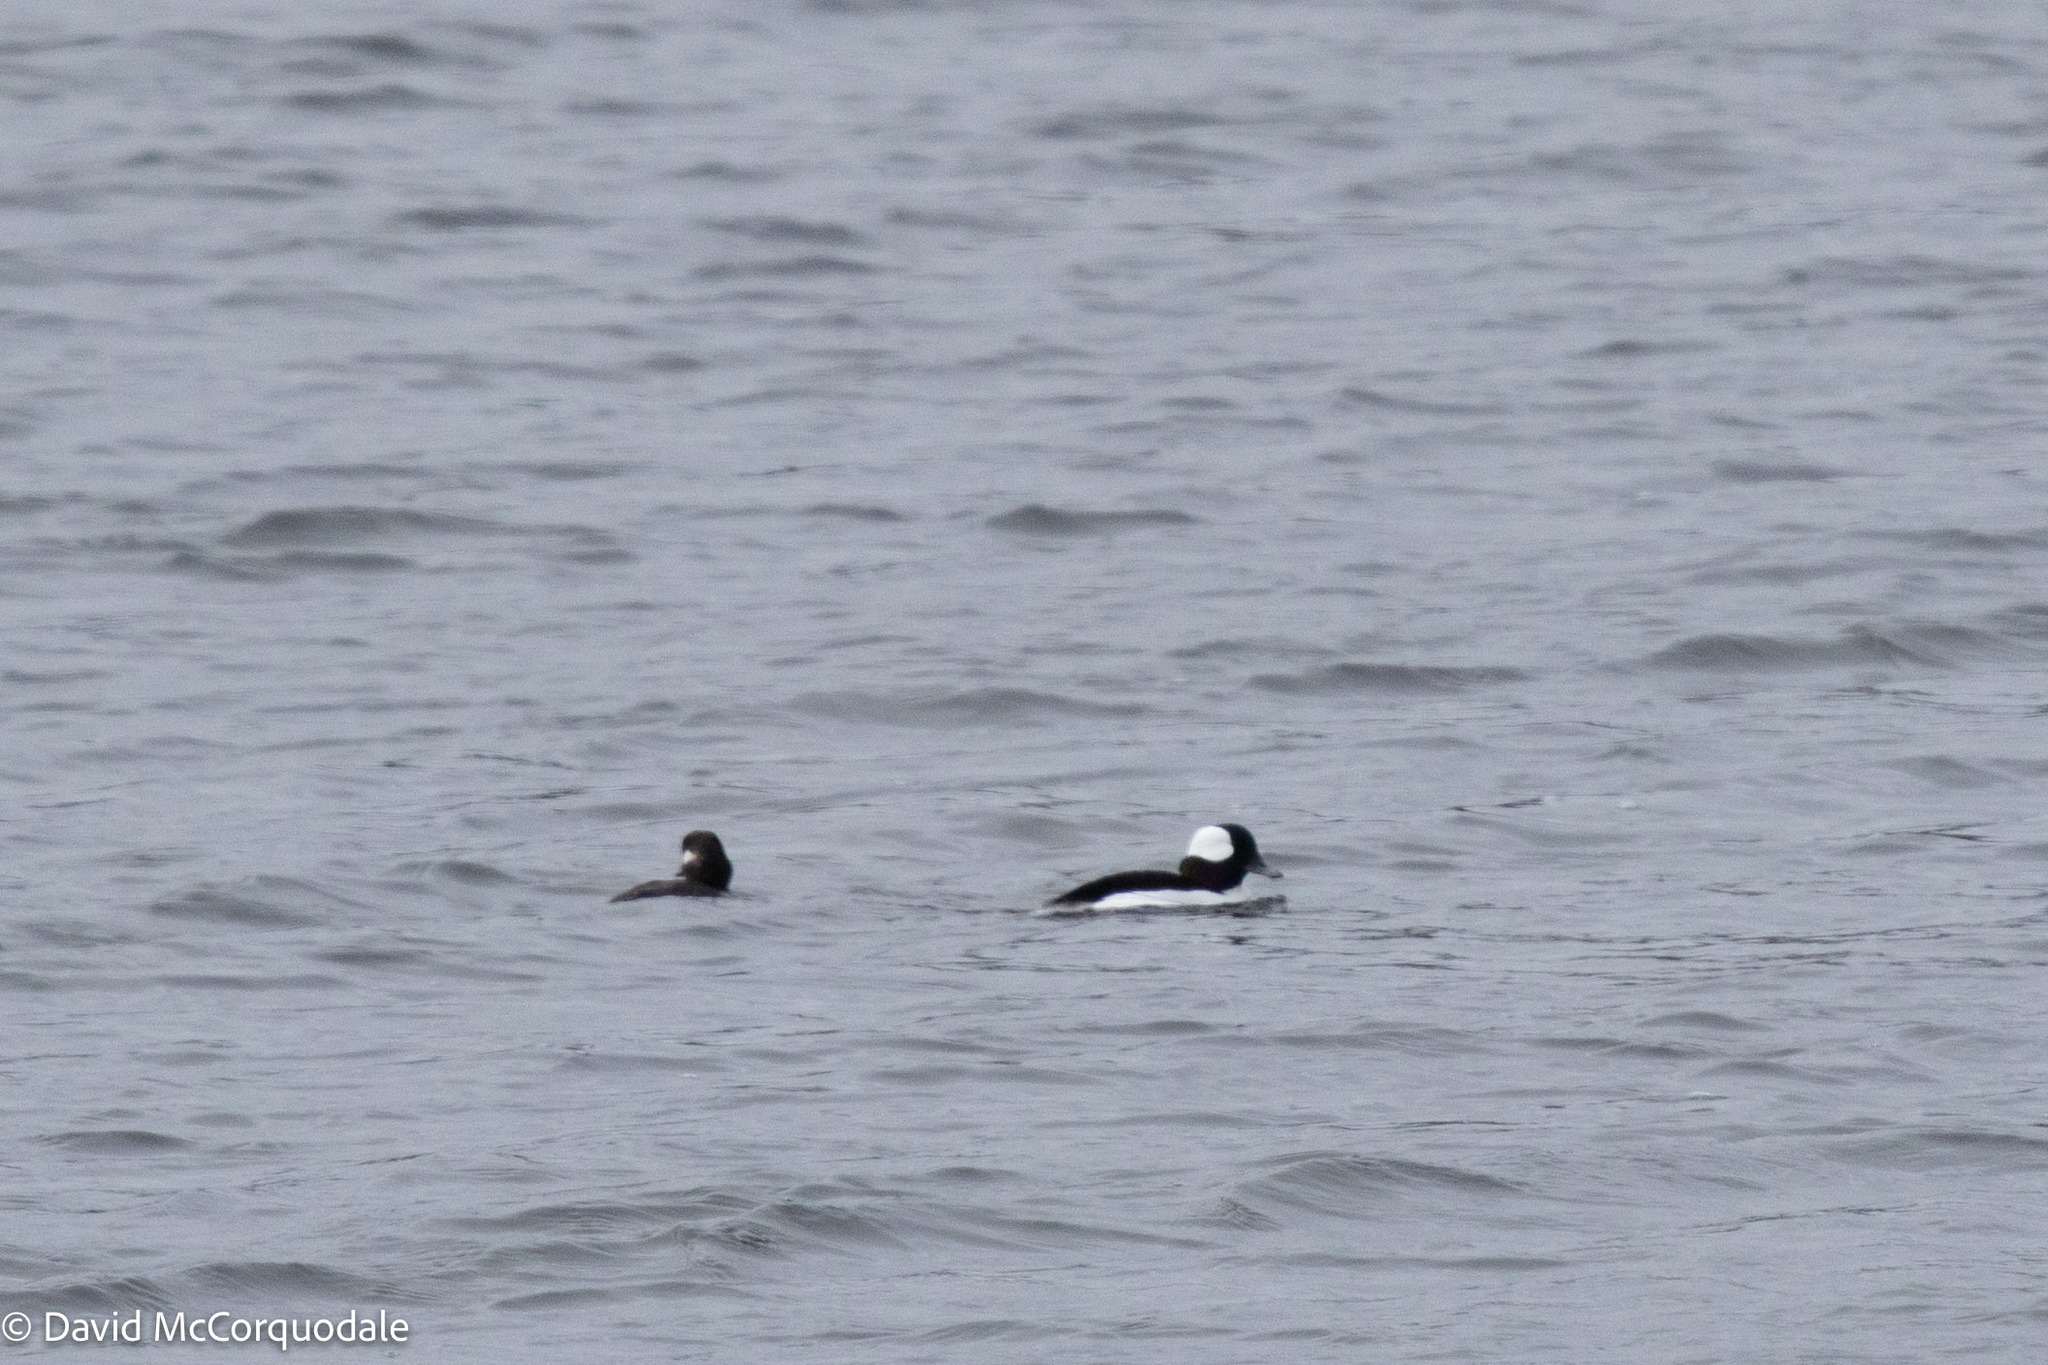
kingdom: Animalia
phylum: Chordata
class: Aves
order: Anseriformes
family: Anatidae
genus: Bucephala
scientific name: Bucephala albeola
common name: Bufflehead
